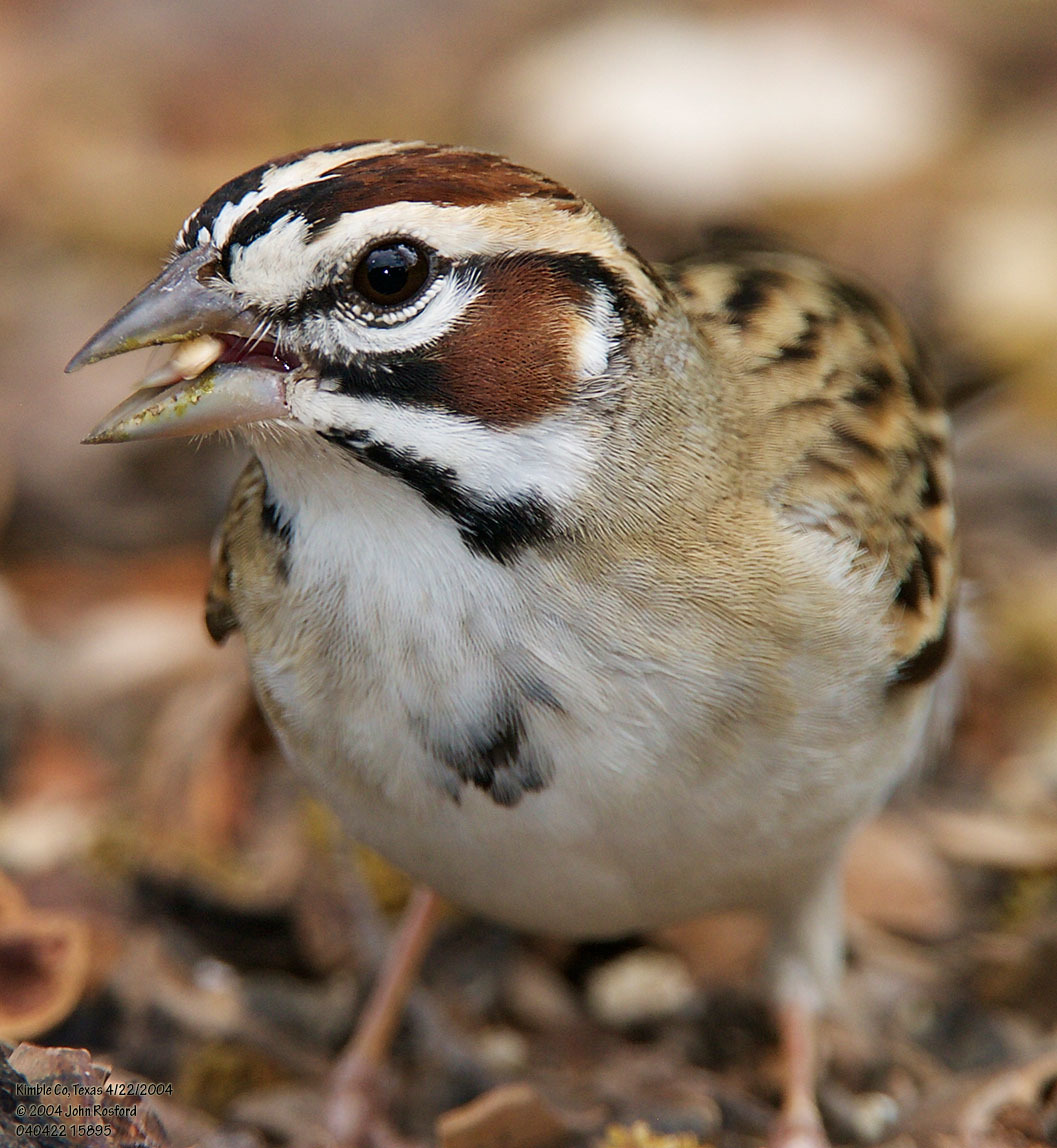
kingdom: Animalia
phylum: Chordata
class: Aves
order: Passeriformes
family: Passerellidae
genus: Chondestes
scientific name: Chondestes grammacus
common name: Lark sparrow
